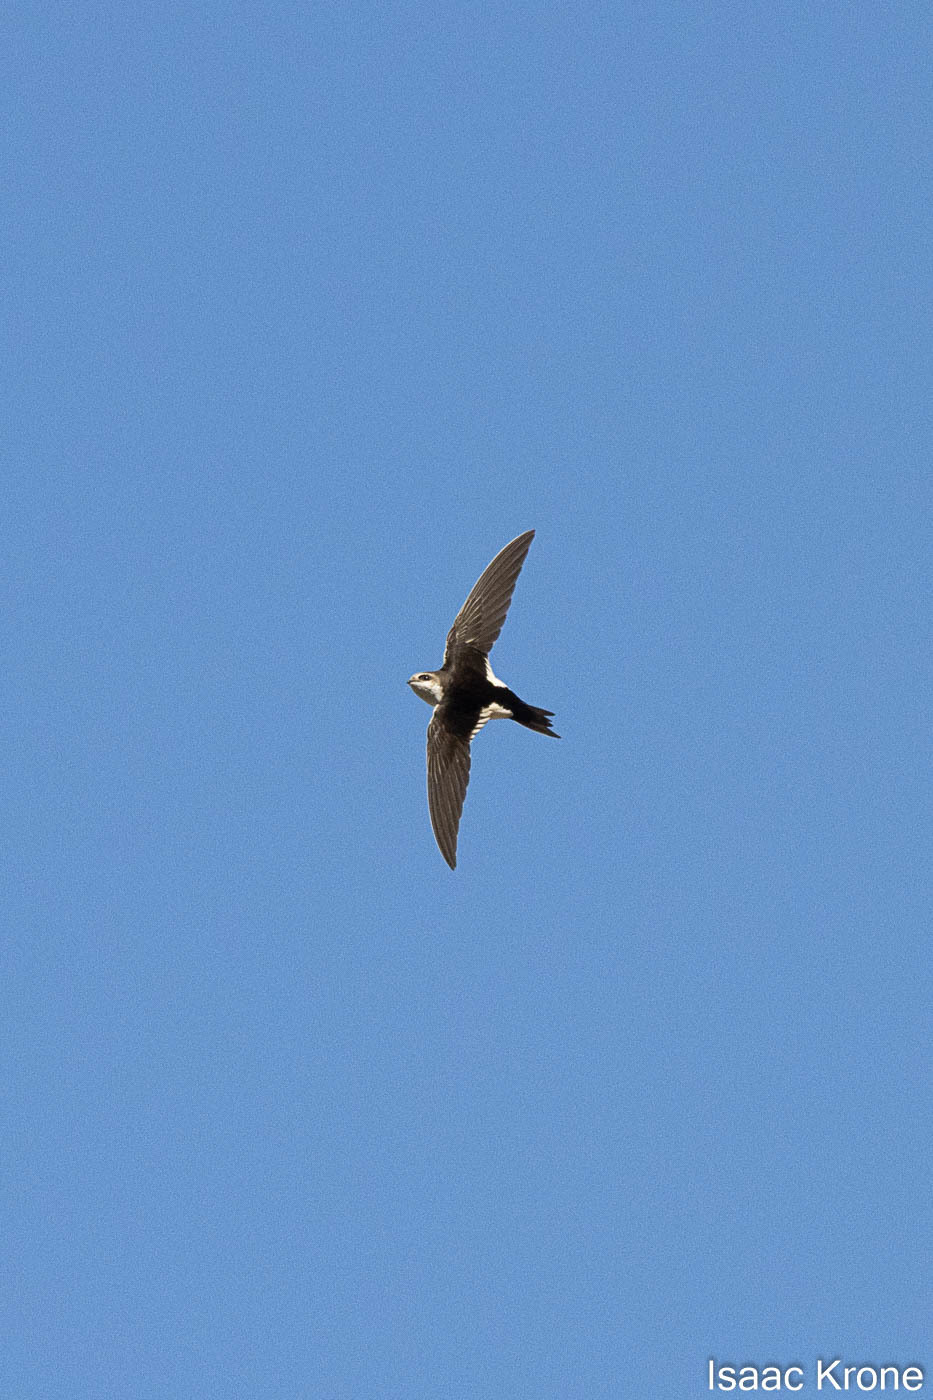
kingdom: Animalia
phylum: Chordata
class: Aves
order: Apodiformes
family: Apodidae
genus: Aeronautes
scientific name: Aeronautes saxatalis
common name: White-throated swift
